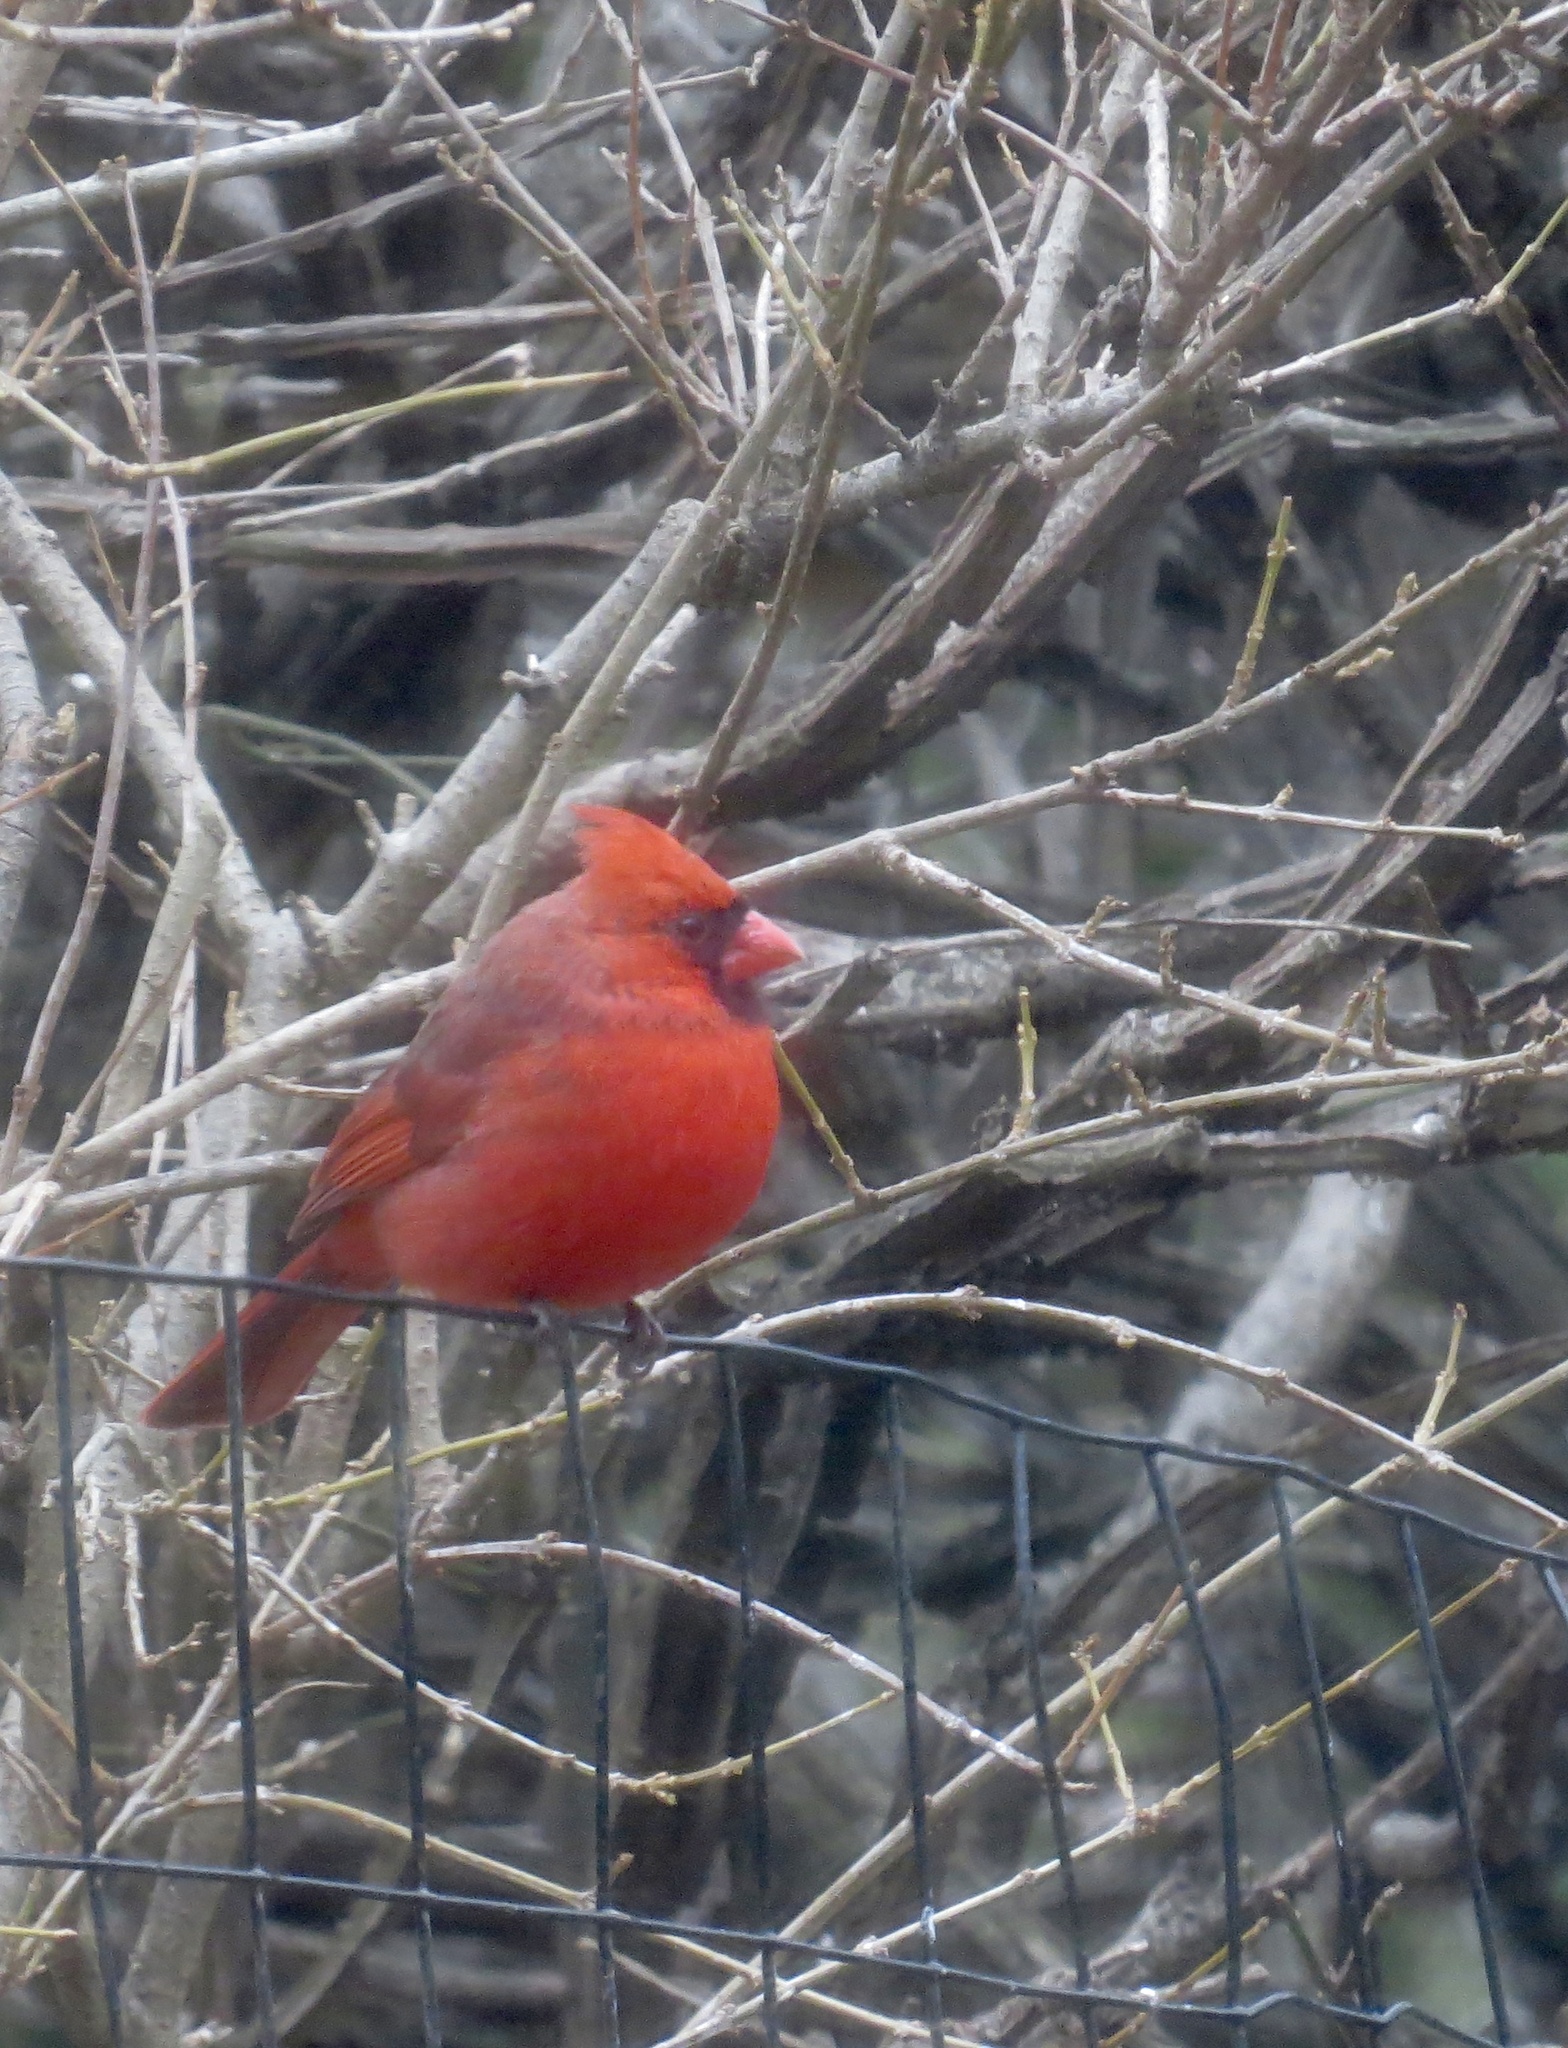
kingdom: Animalia
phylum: Chordata
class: Aves
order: Passeriformes
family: Cardinalidae
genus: Cardinalis
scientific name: Cardinalis cardinalis
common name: Northern cardinal
